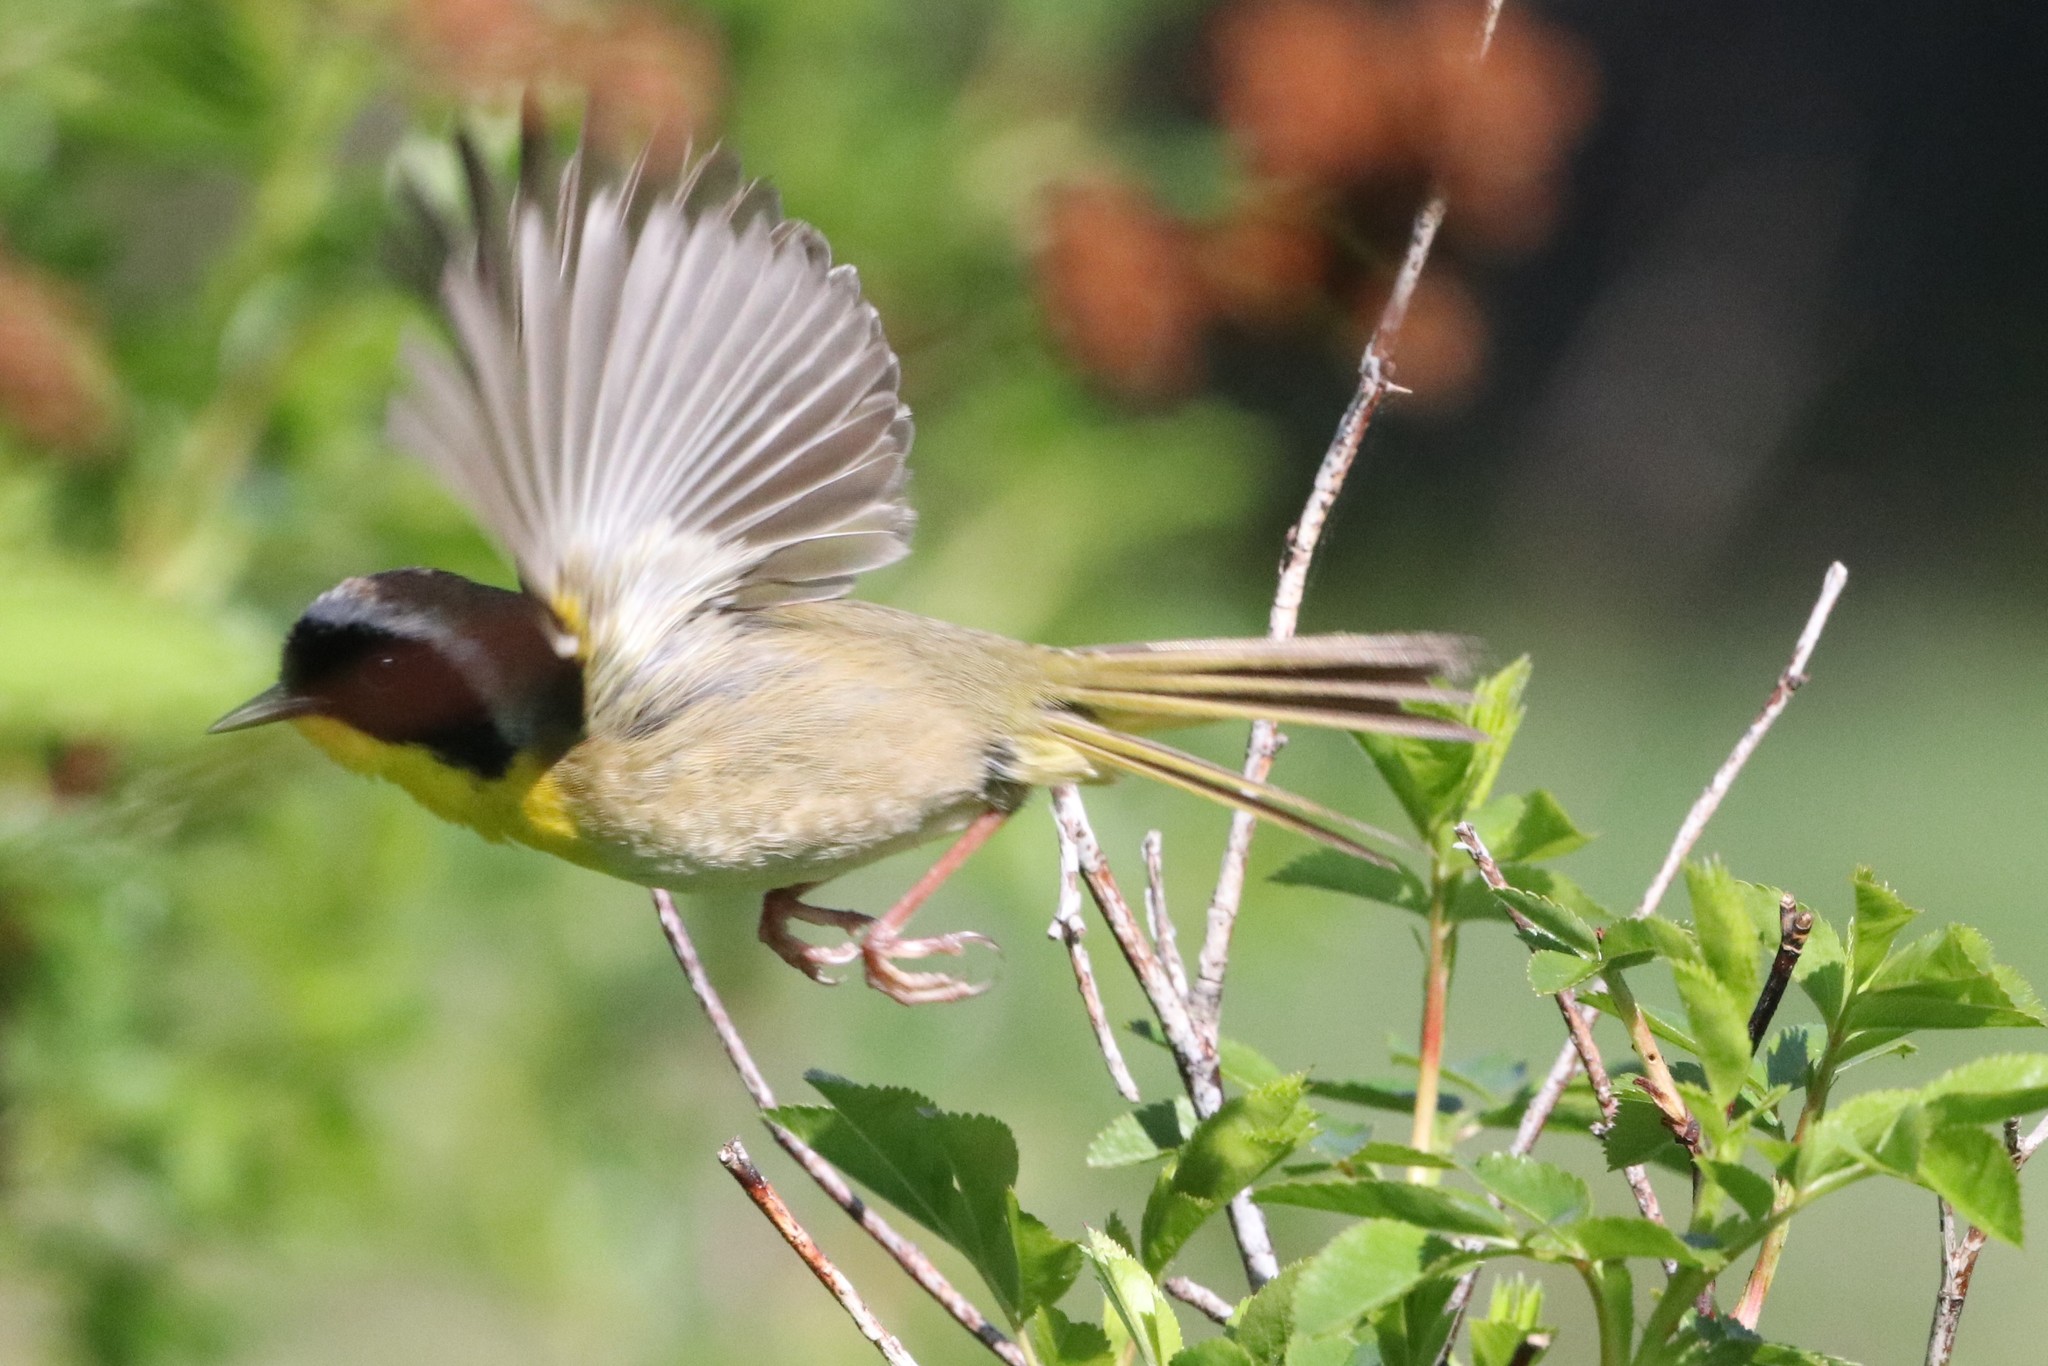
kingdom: Animalia
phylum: Chordata
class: Aves
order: Passeriformes
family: Parulidae
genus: Geothlypis
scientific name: Geothlypis trichas
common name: Common yellowthroat
